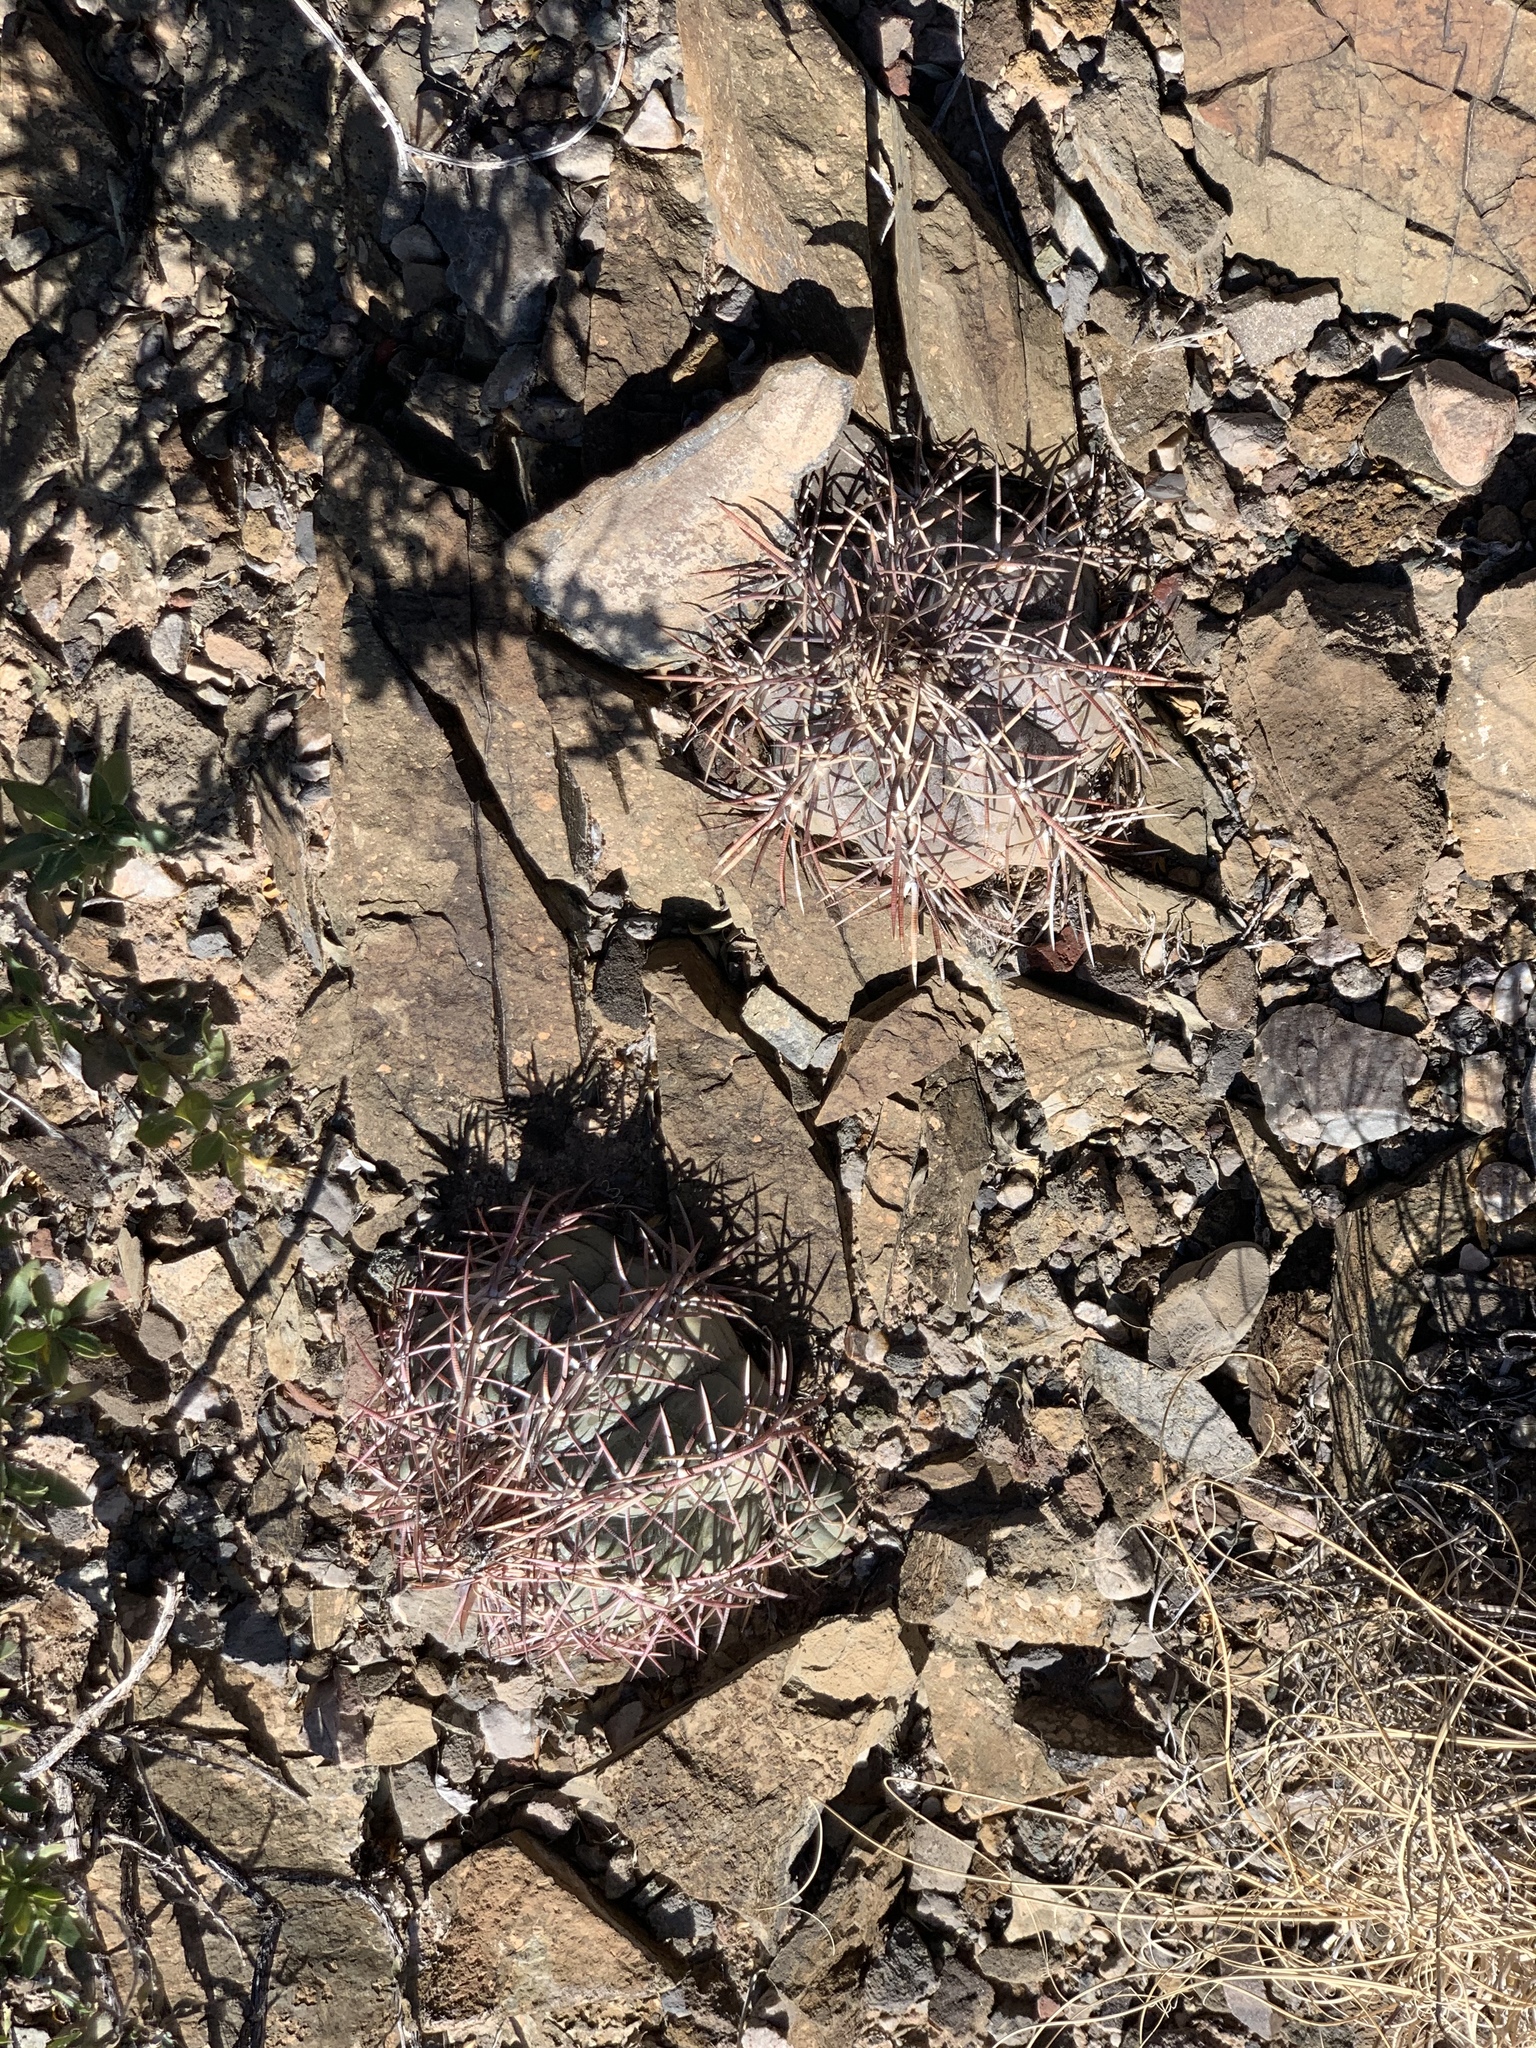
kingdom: Plantae
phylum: Tracheophyta
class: Magnoliopsida
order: Caryophyllales
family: Cactaceae
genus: Echinocactus
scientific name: Echinocactus horizonthalonius
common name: Devilshead
